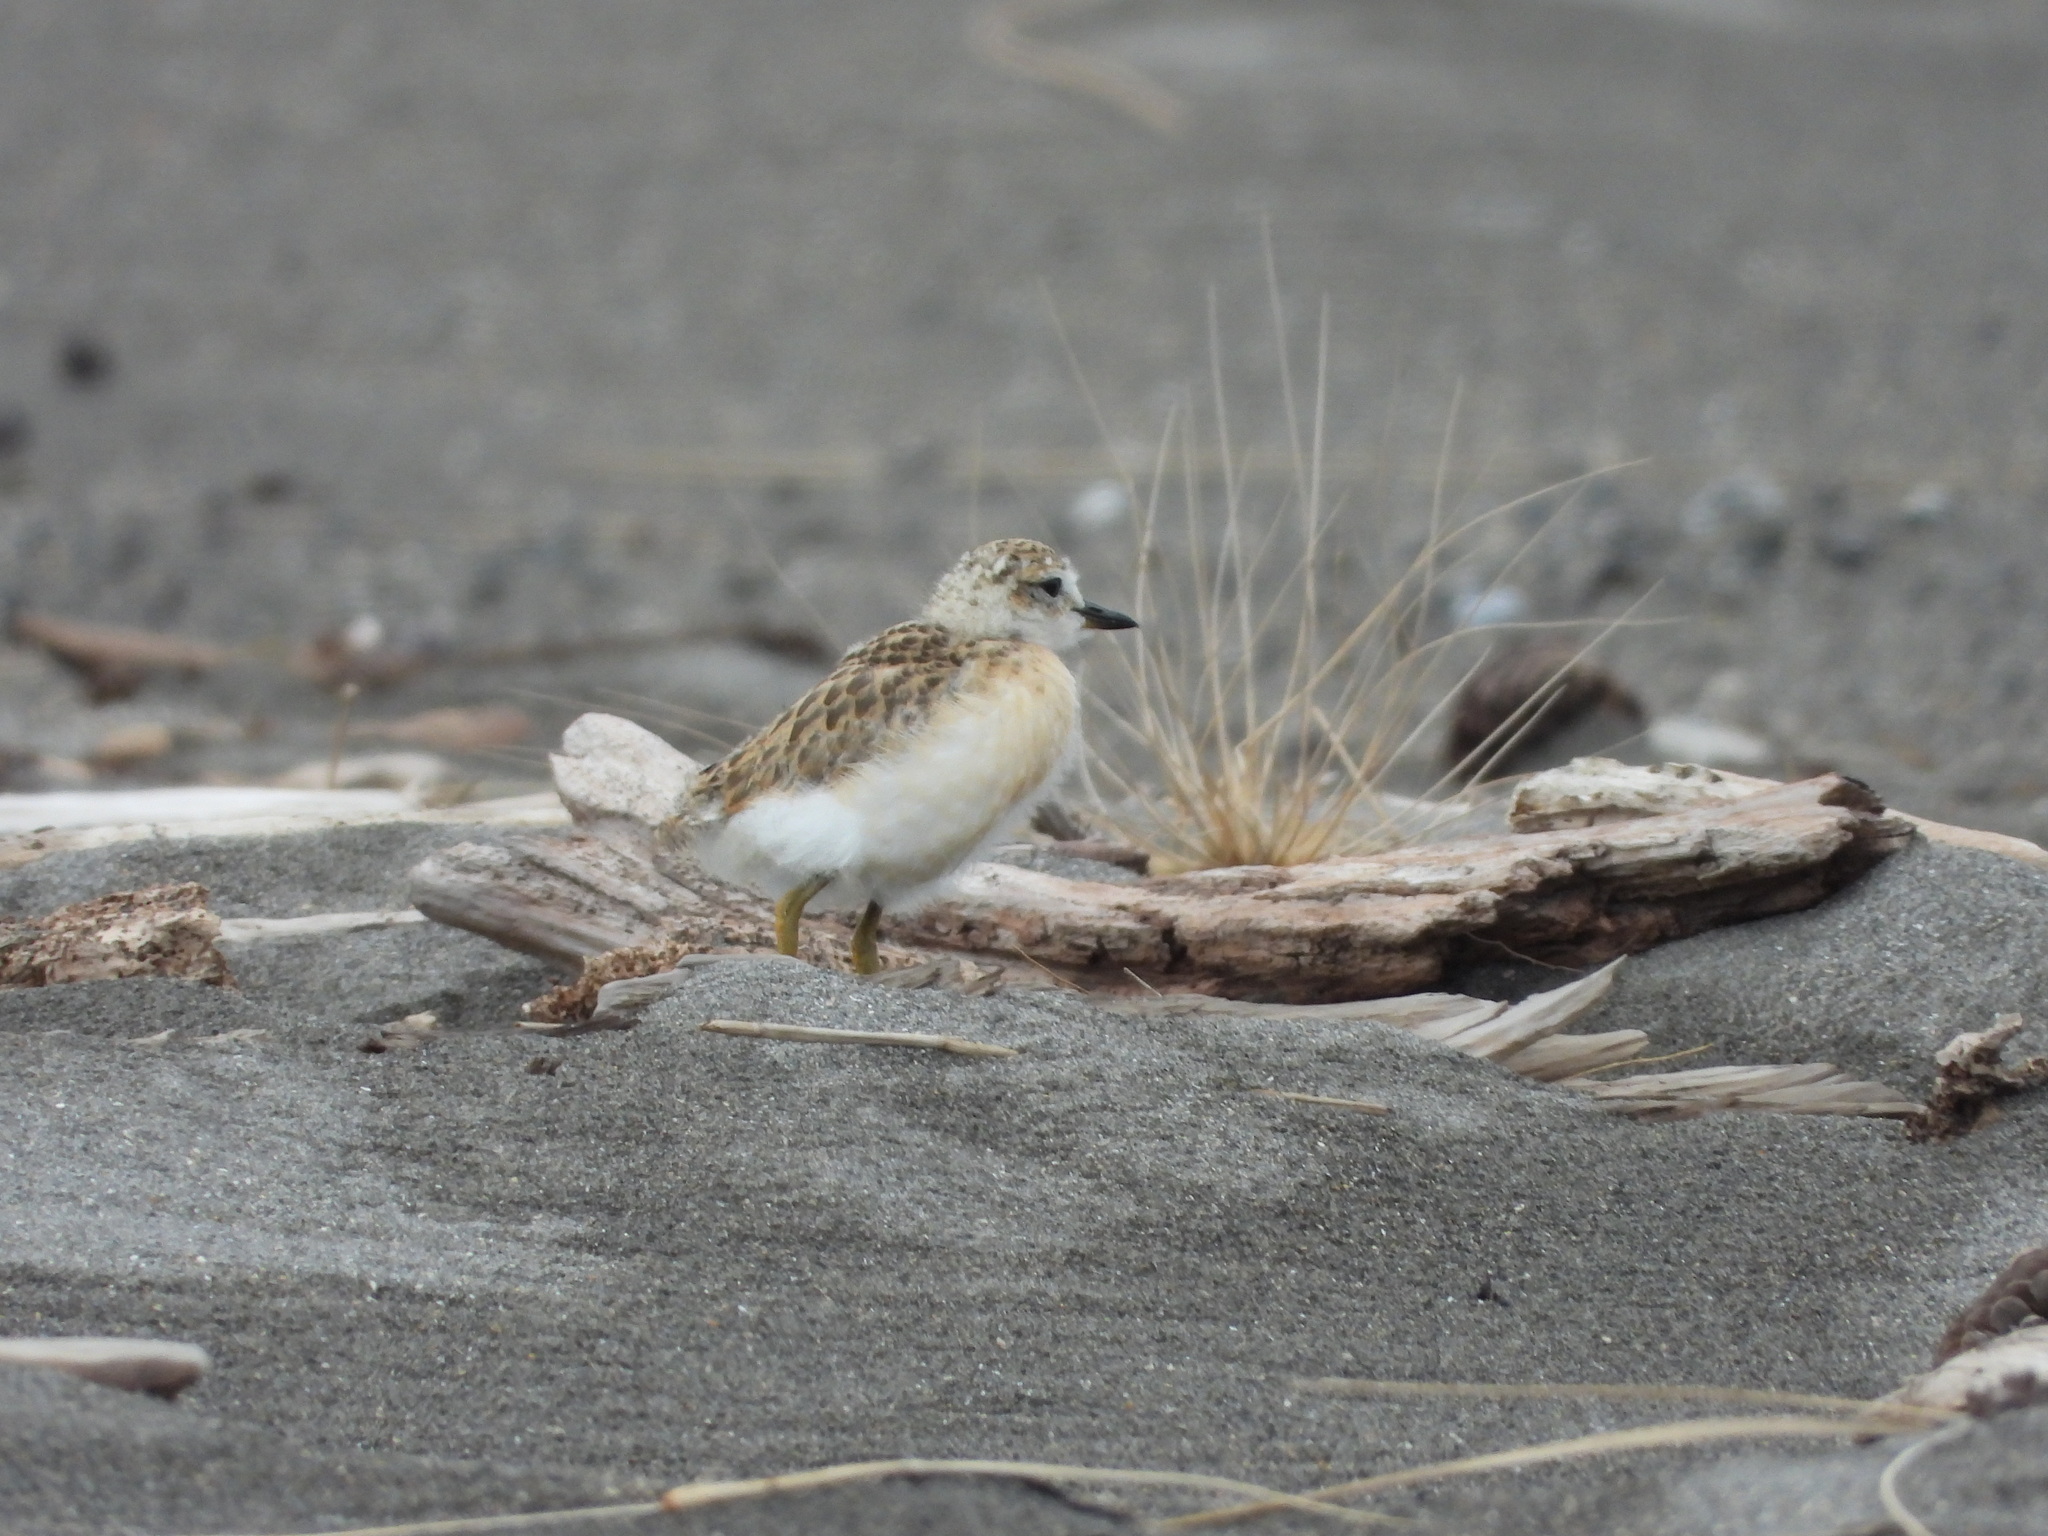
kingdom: Animalia
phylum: Chordata
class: Aves
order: Charadriiformes
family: Charadriidae
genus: Anarhynchus
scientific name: Anarhynchus
